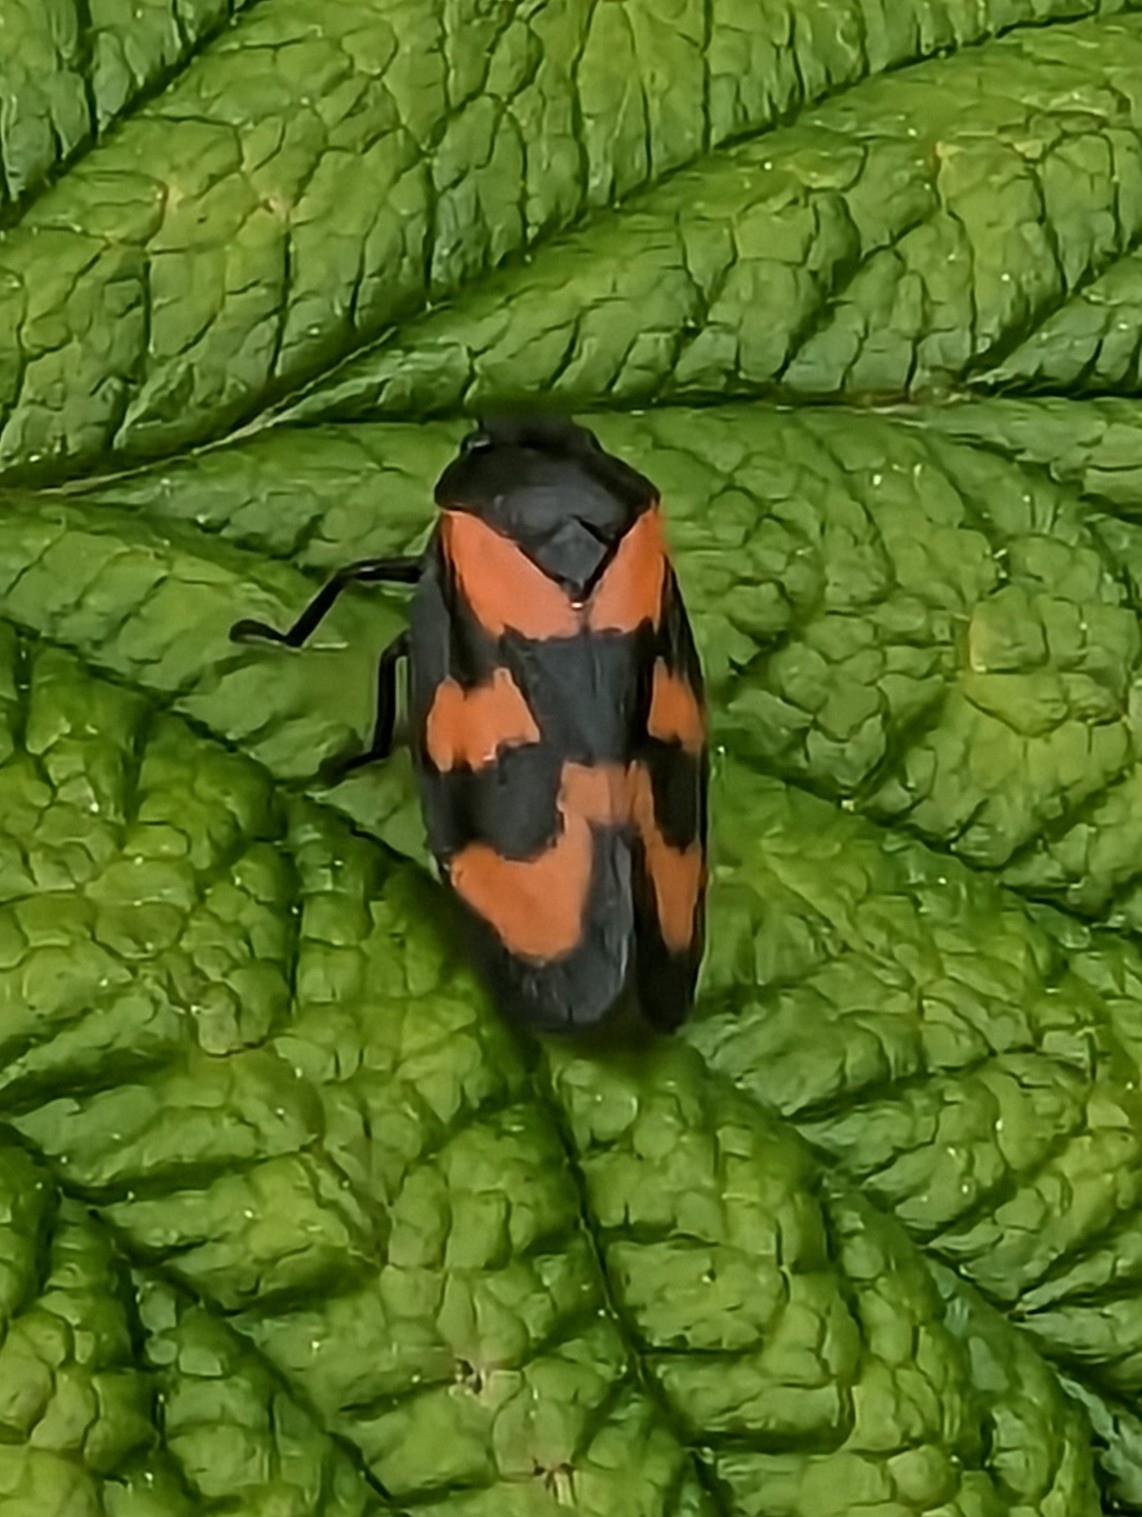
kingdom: Animalia
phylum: Arthropoda
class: Insecta
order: Hemiptera
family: Cercopidae
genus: Cercopis
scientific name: Cercopis vulnerata
